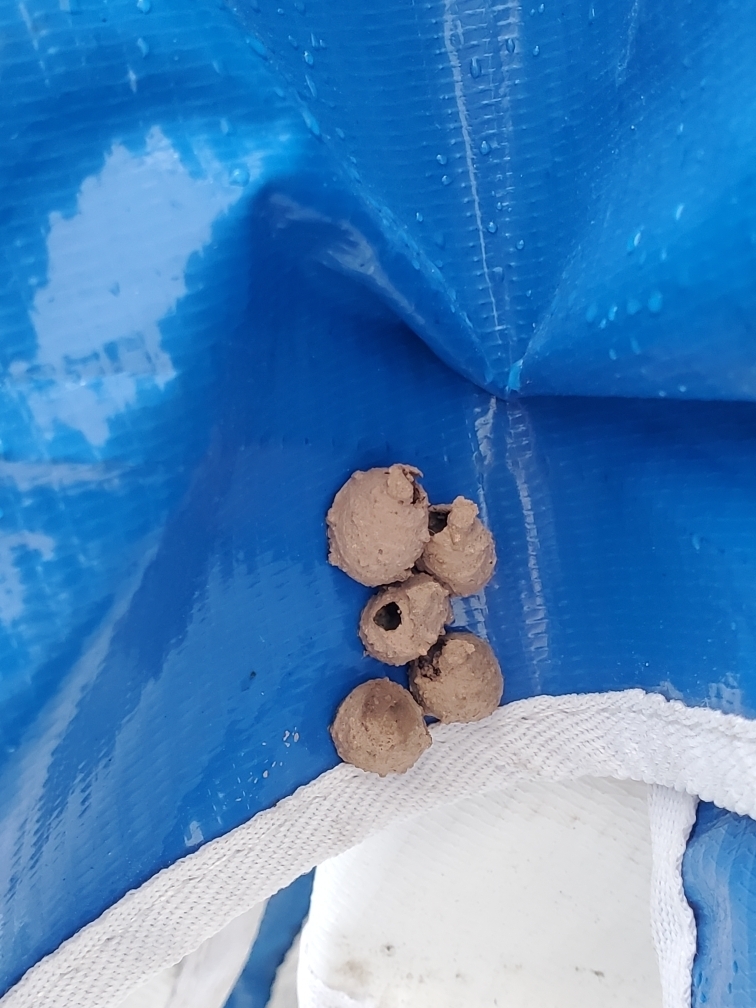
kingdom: Animalia
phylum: Arthropoda
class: Insecta
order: Hymenoptera
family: Vespidae
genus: Eumenes
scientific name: Eumenes
